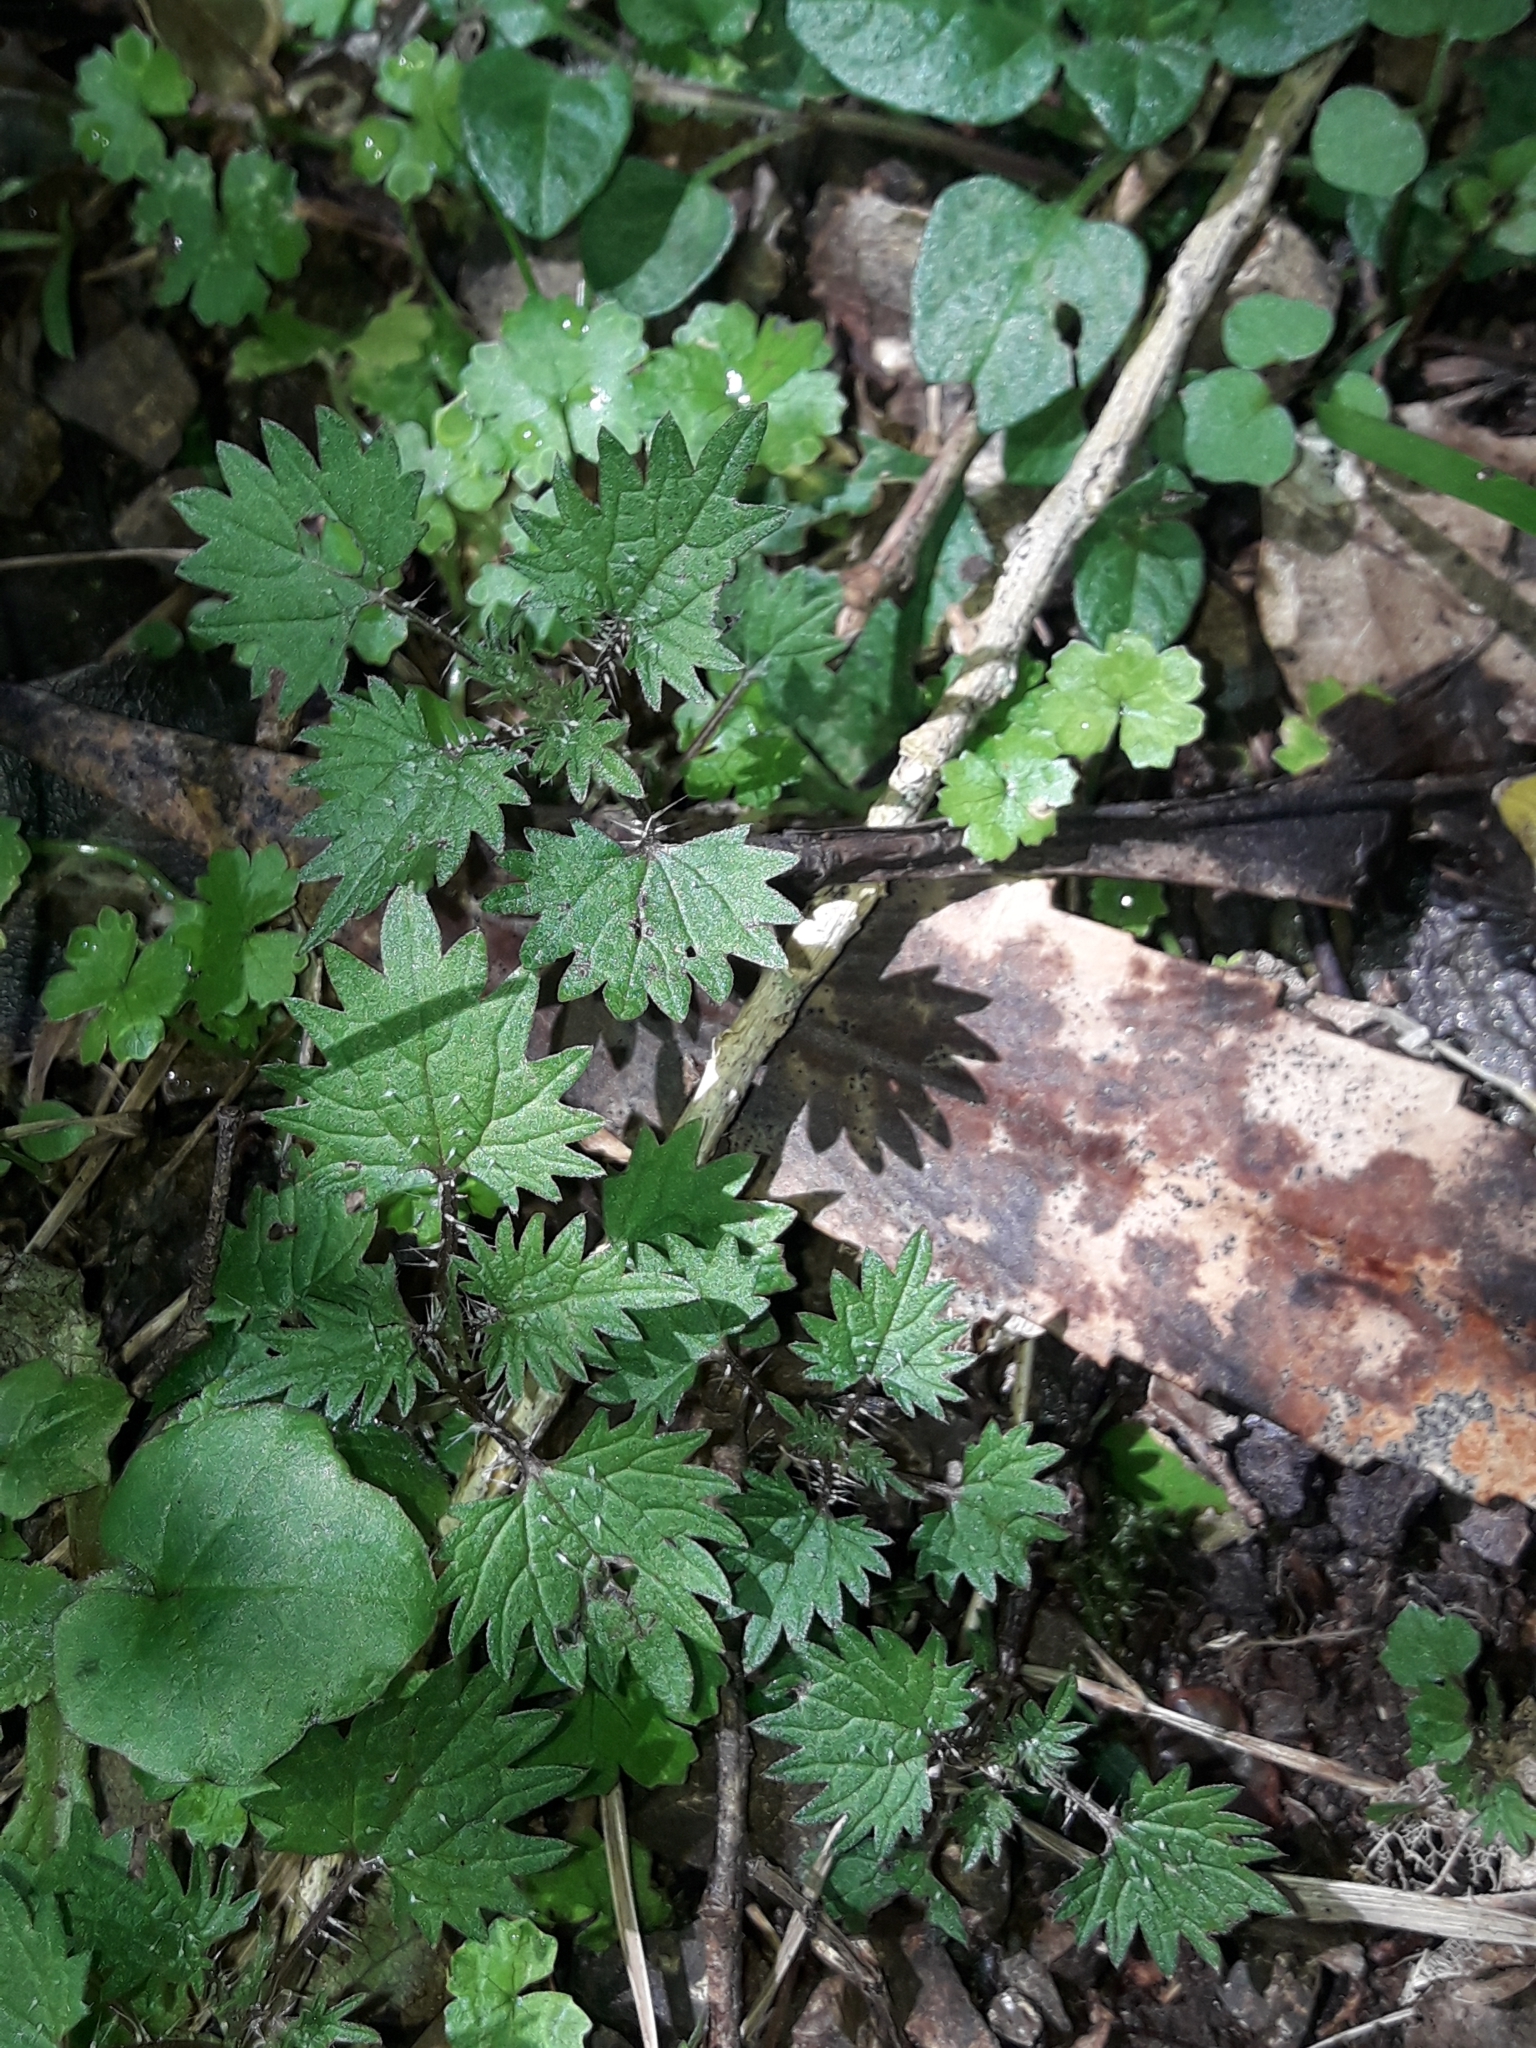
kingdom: Plantae
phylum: Tracheophyta
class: Magnoliopsida
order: Rosales
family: Urticaceae
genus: Urtica
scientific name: Urtica sykesii
